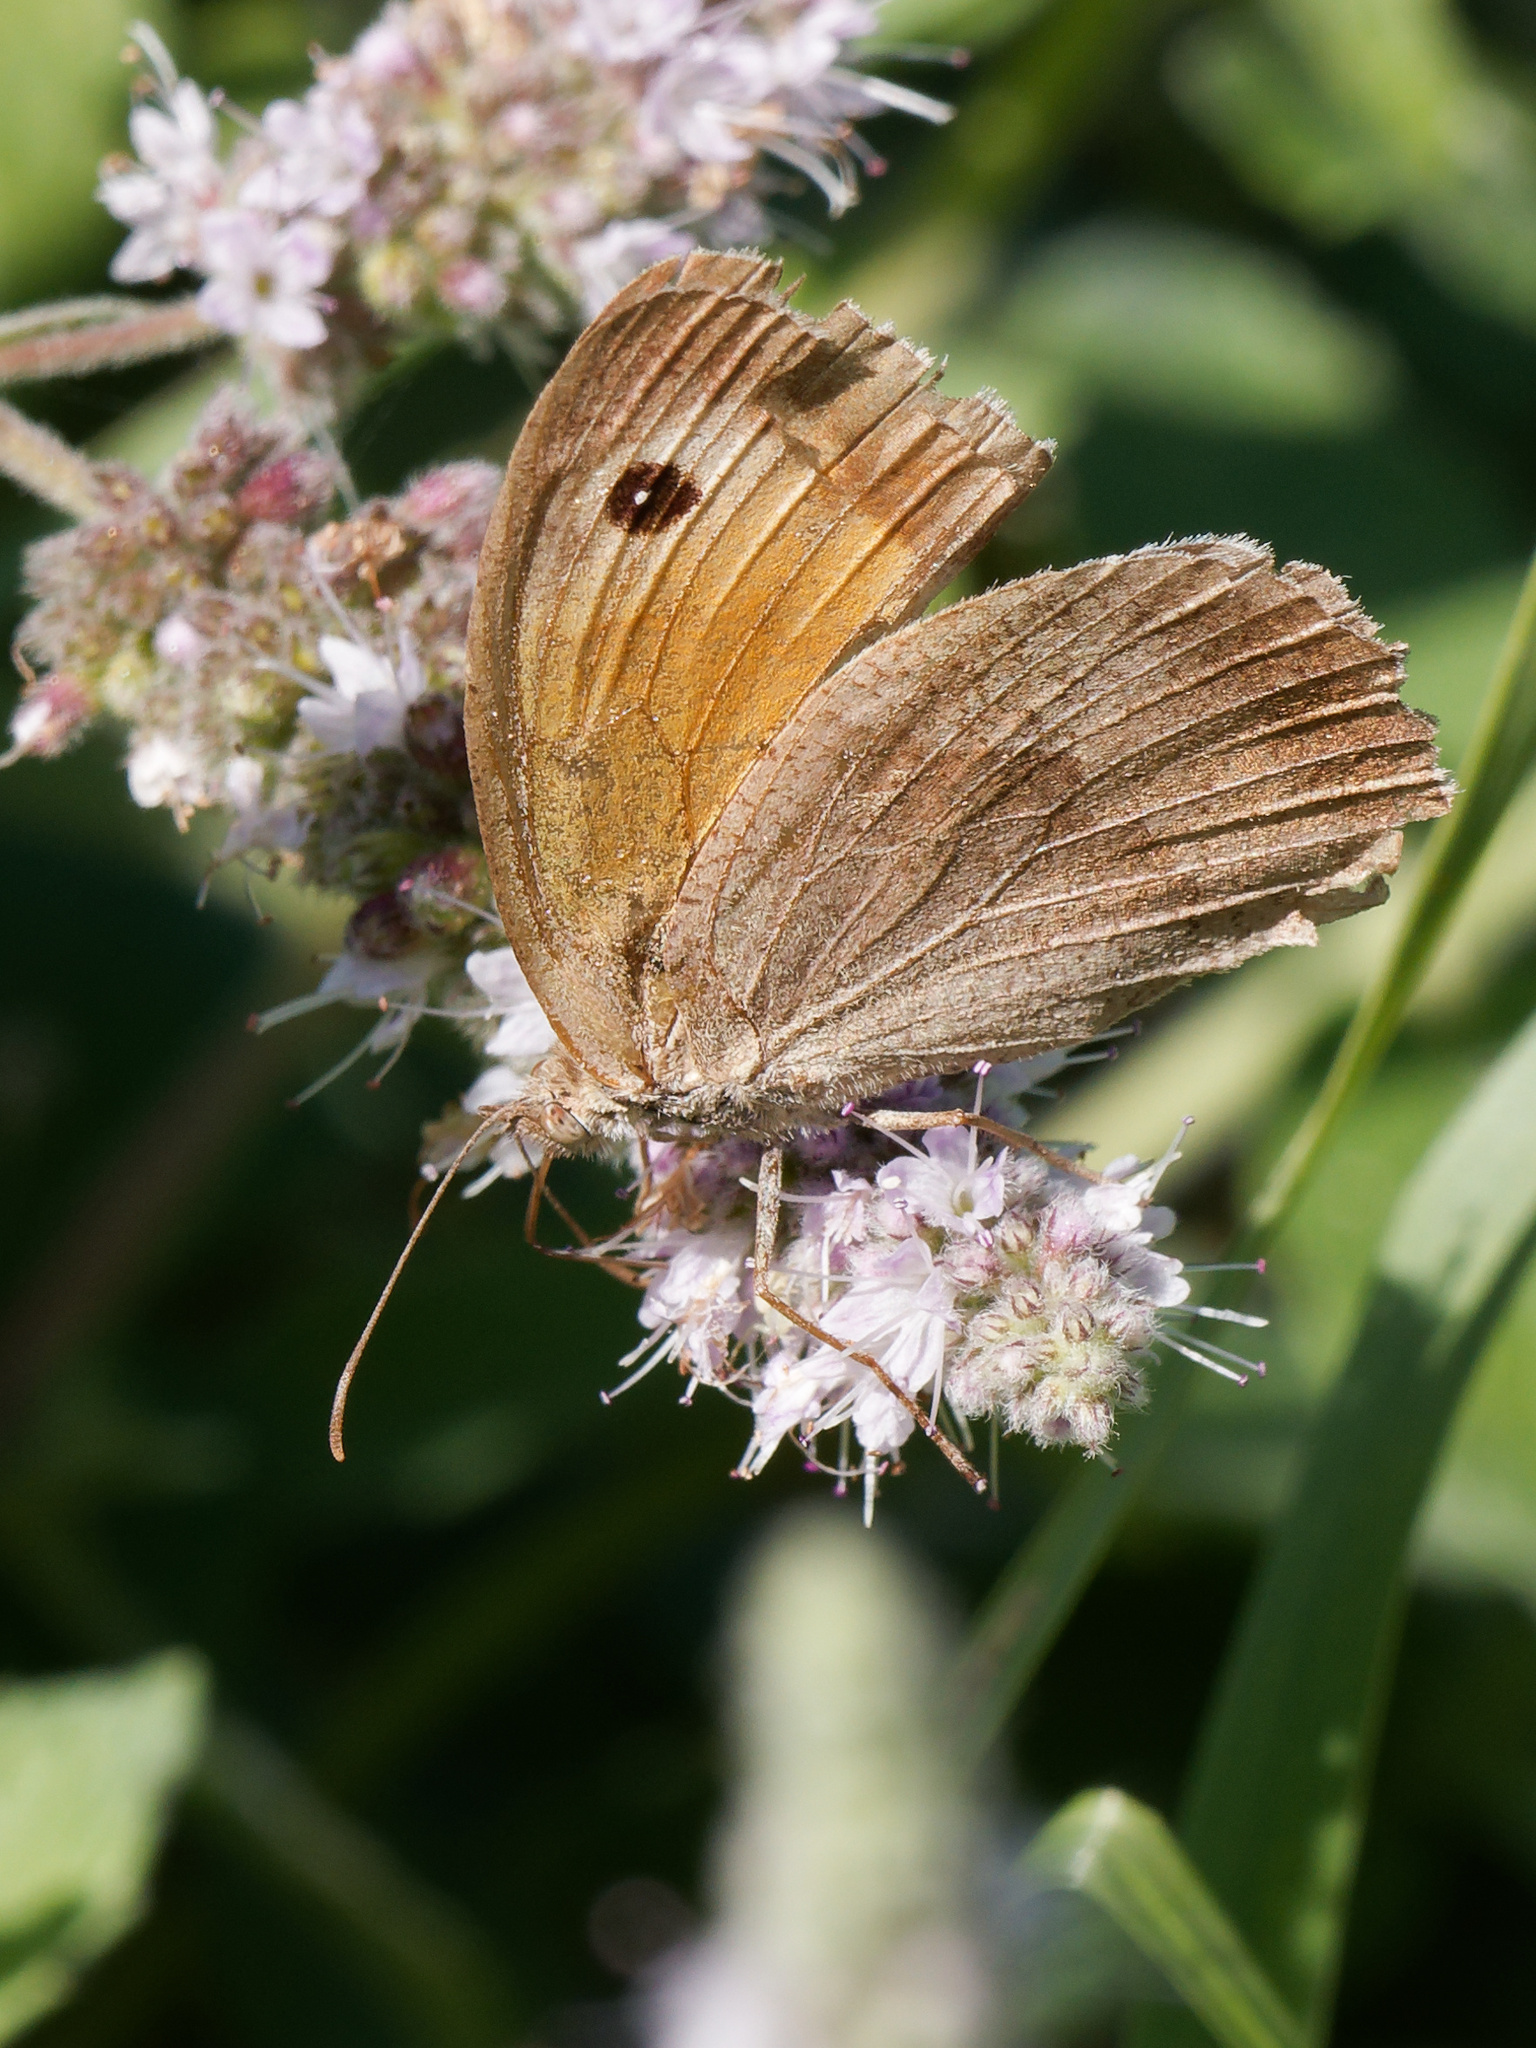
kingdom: Animalia
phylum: Arthropoda
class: Insecta
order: Lepidoptera
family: Nymphalidae
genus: Maniola
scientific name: Maniola jurtina
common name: Meadow brown
